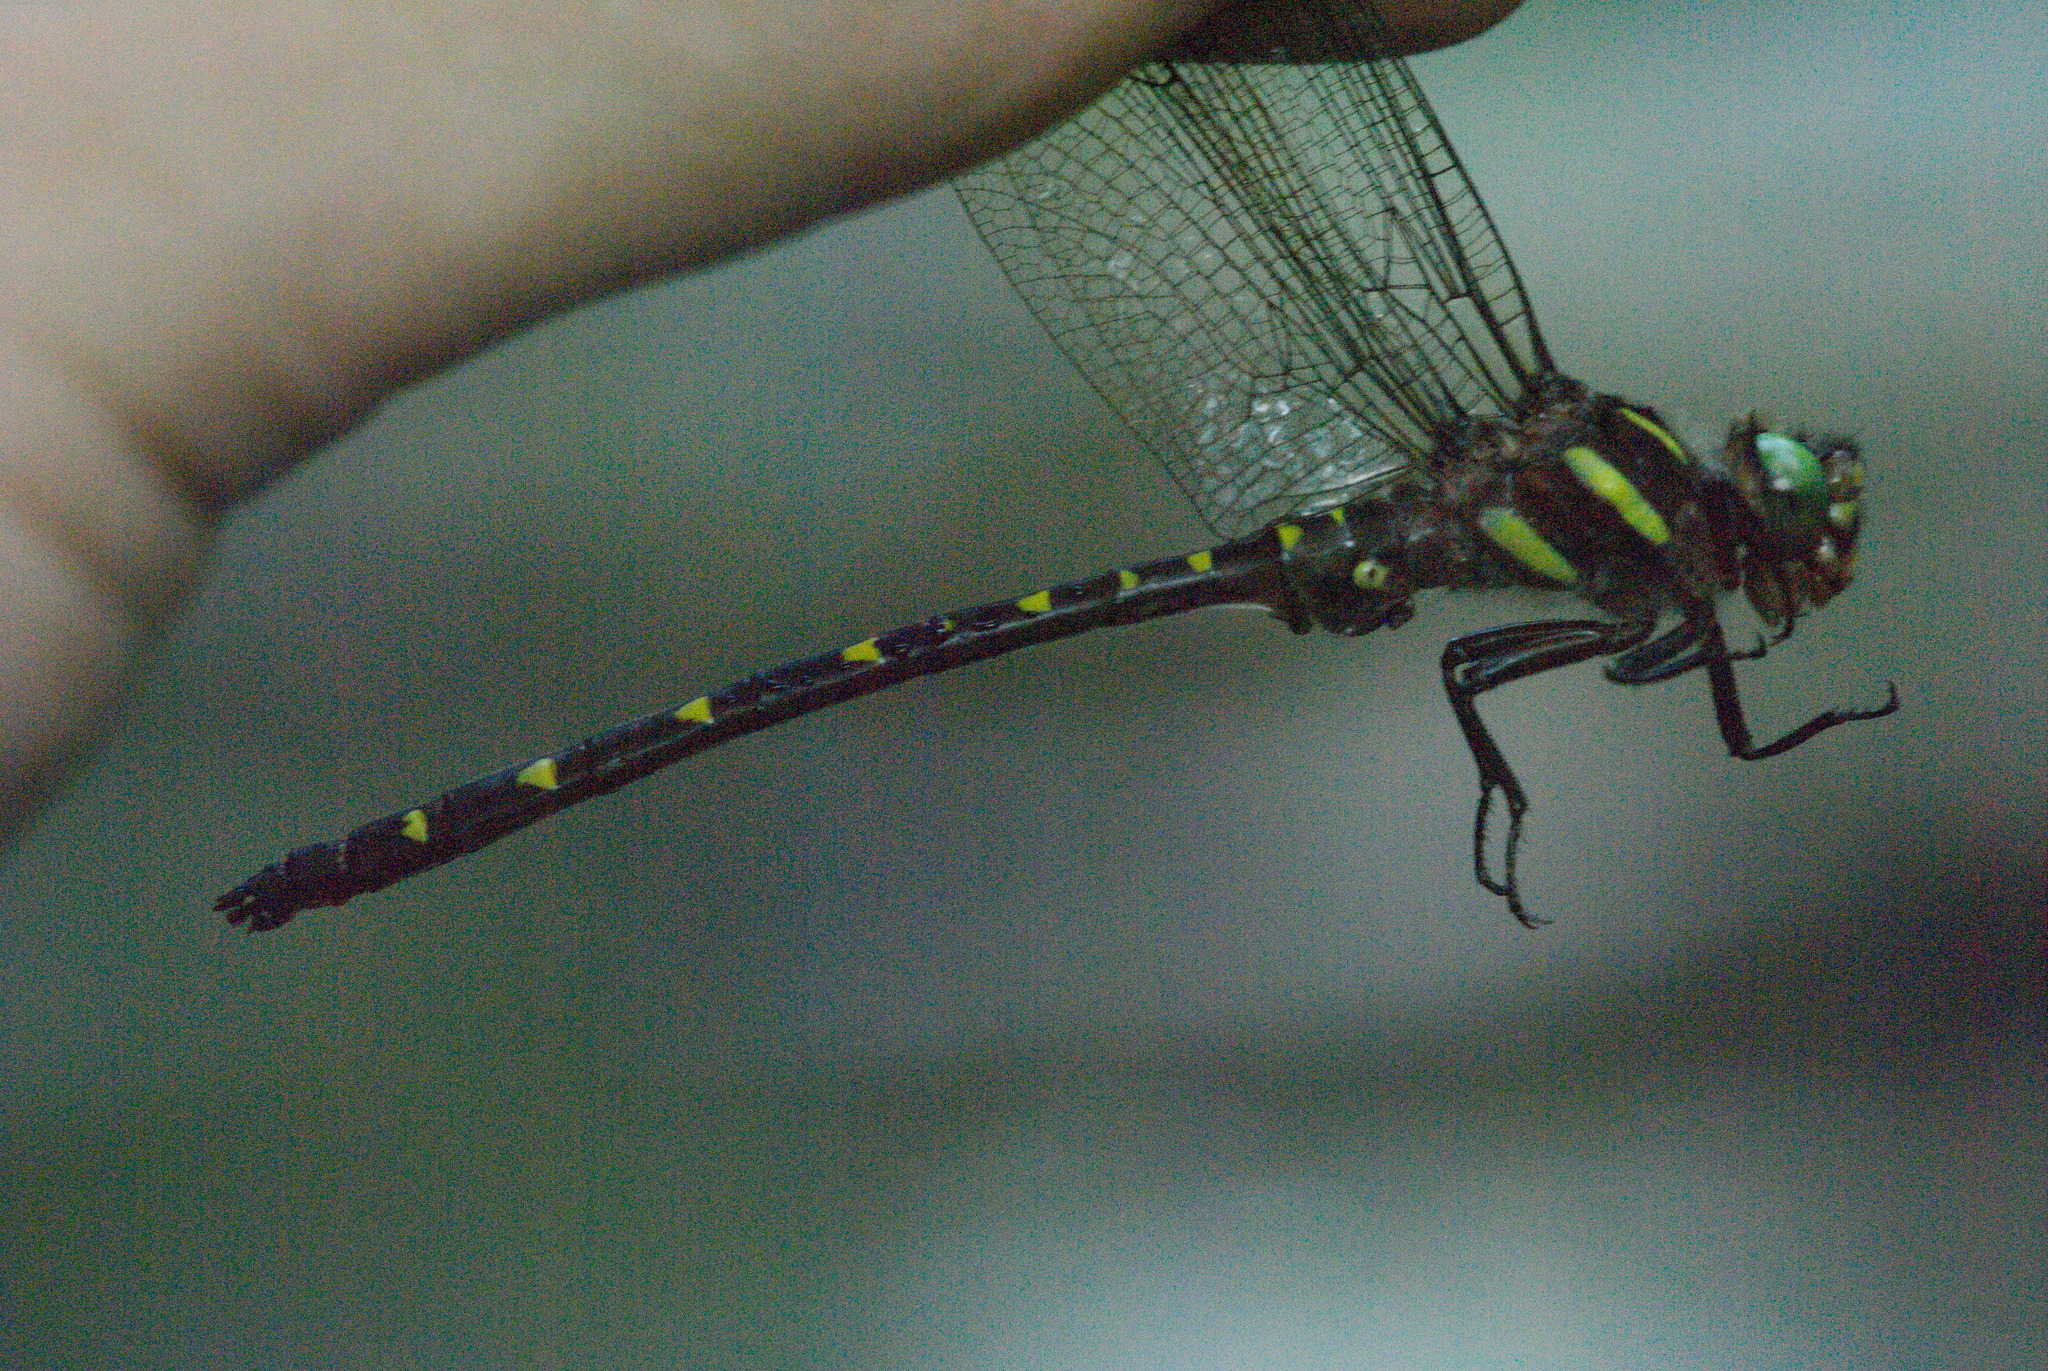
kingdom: Animalia
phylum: Arthropoda
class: Insecta
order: Odonata
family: Cordulegastridae
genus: Cordulegaster
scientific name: Cordulegaster maculata
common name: Twin-spotted spiketail
